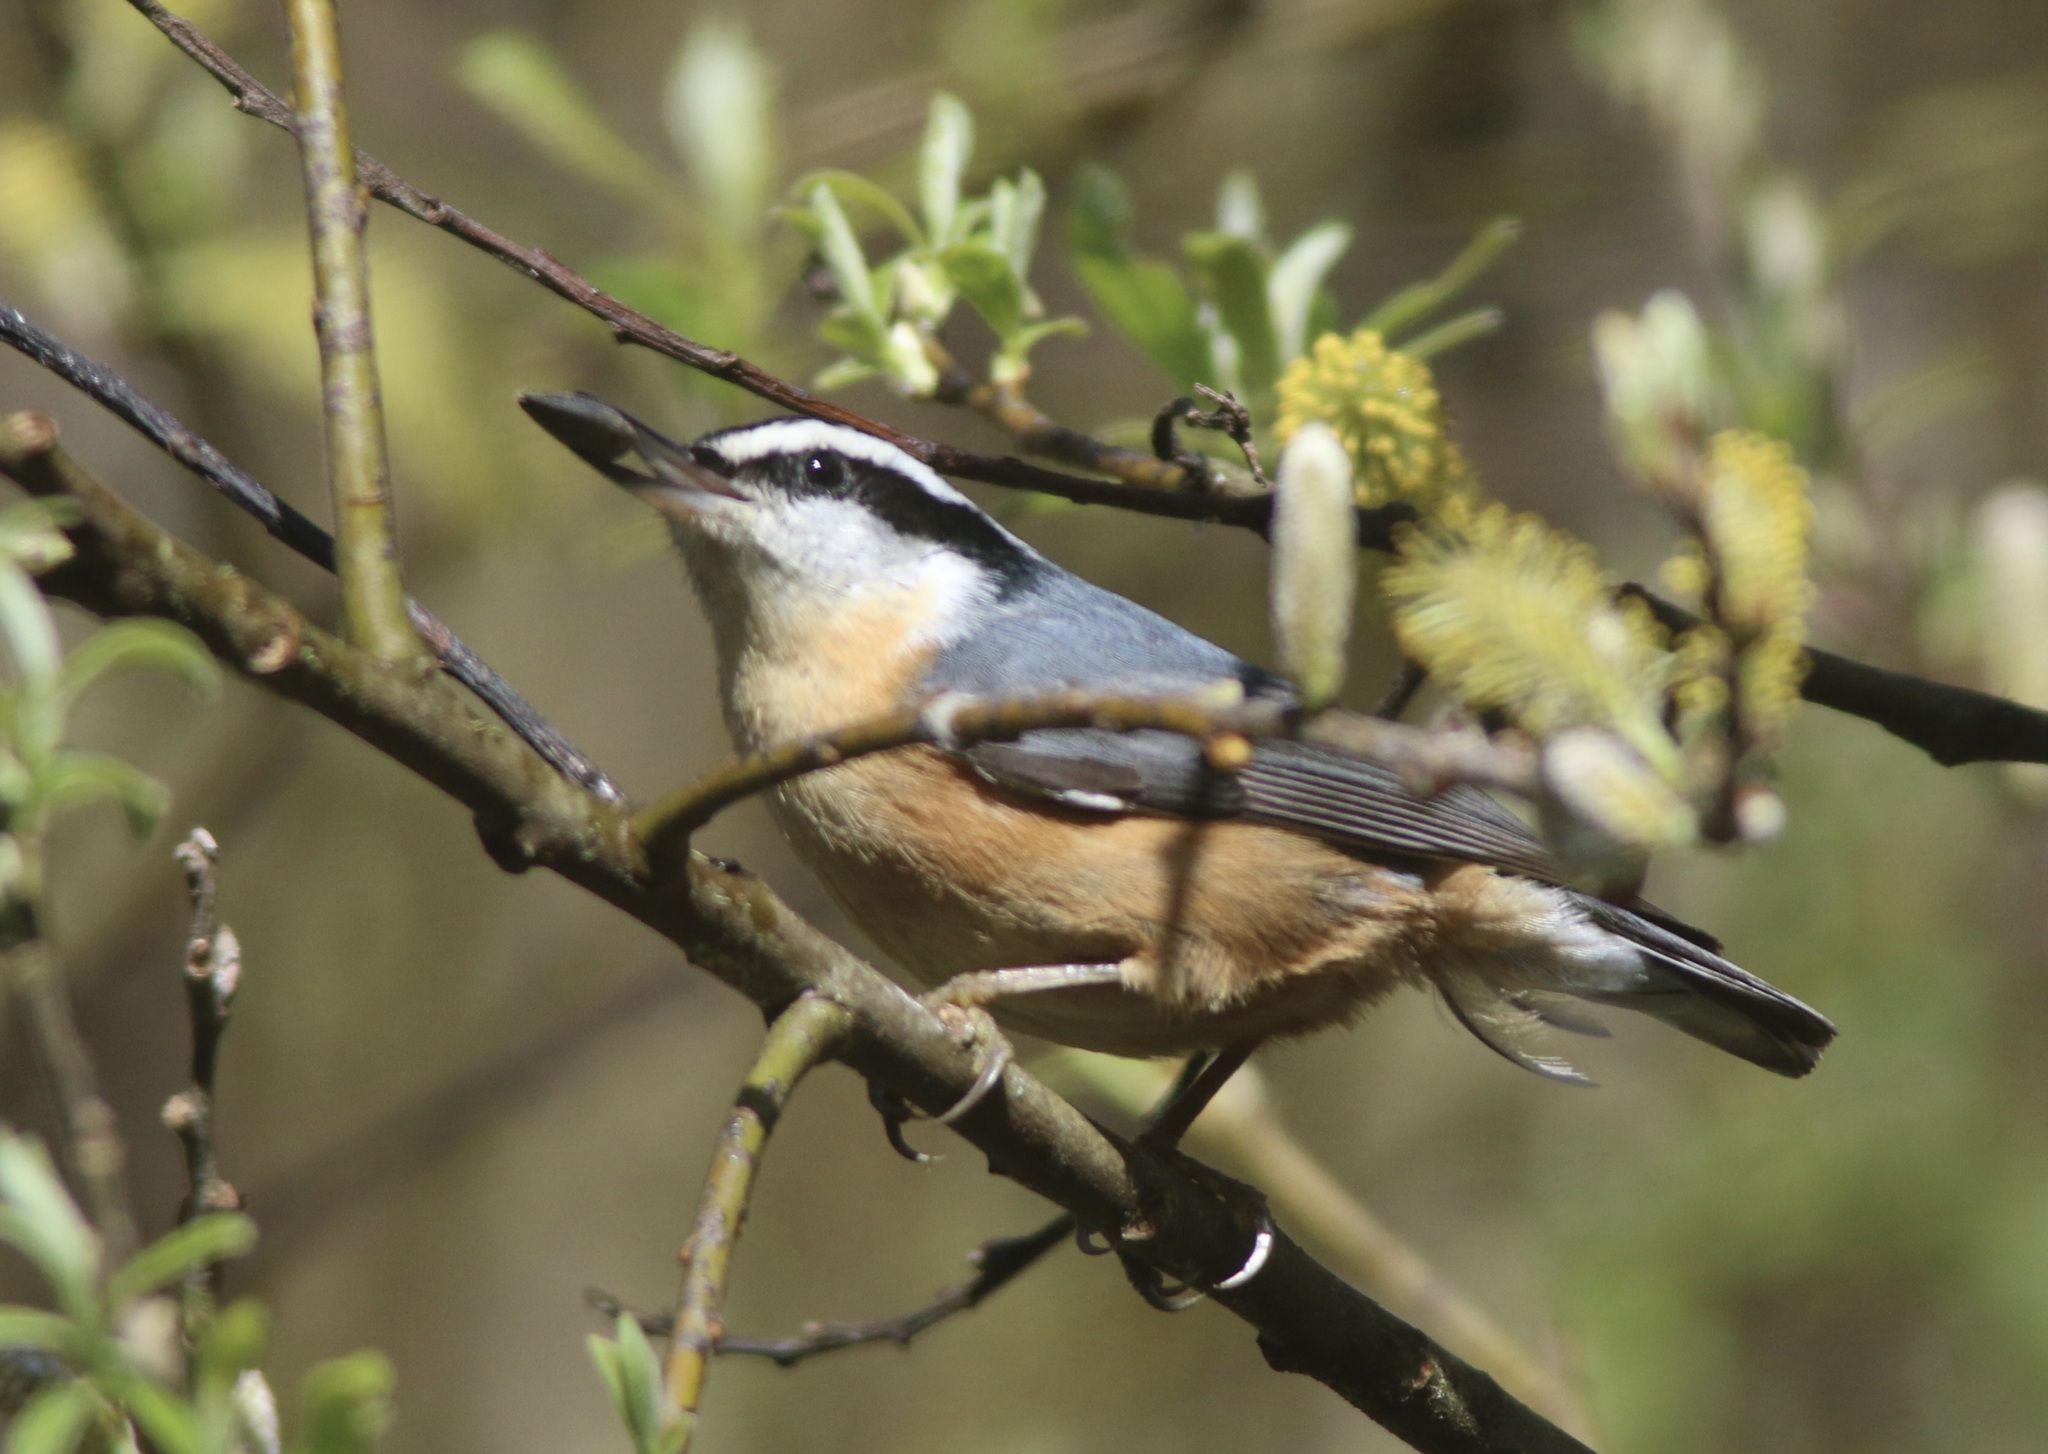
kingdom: Animalia
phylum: Chordata
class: Aves
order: Passeriformes
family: Sittidae
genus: Sitta
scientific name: Sitta canadensis
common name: Red-breasted nuthatch
